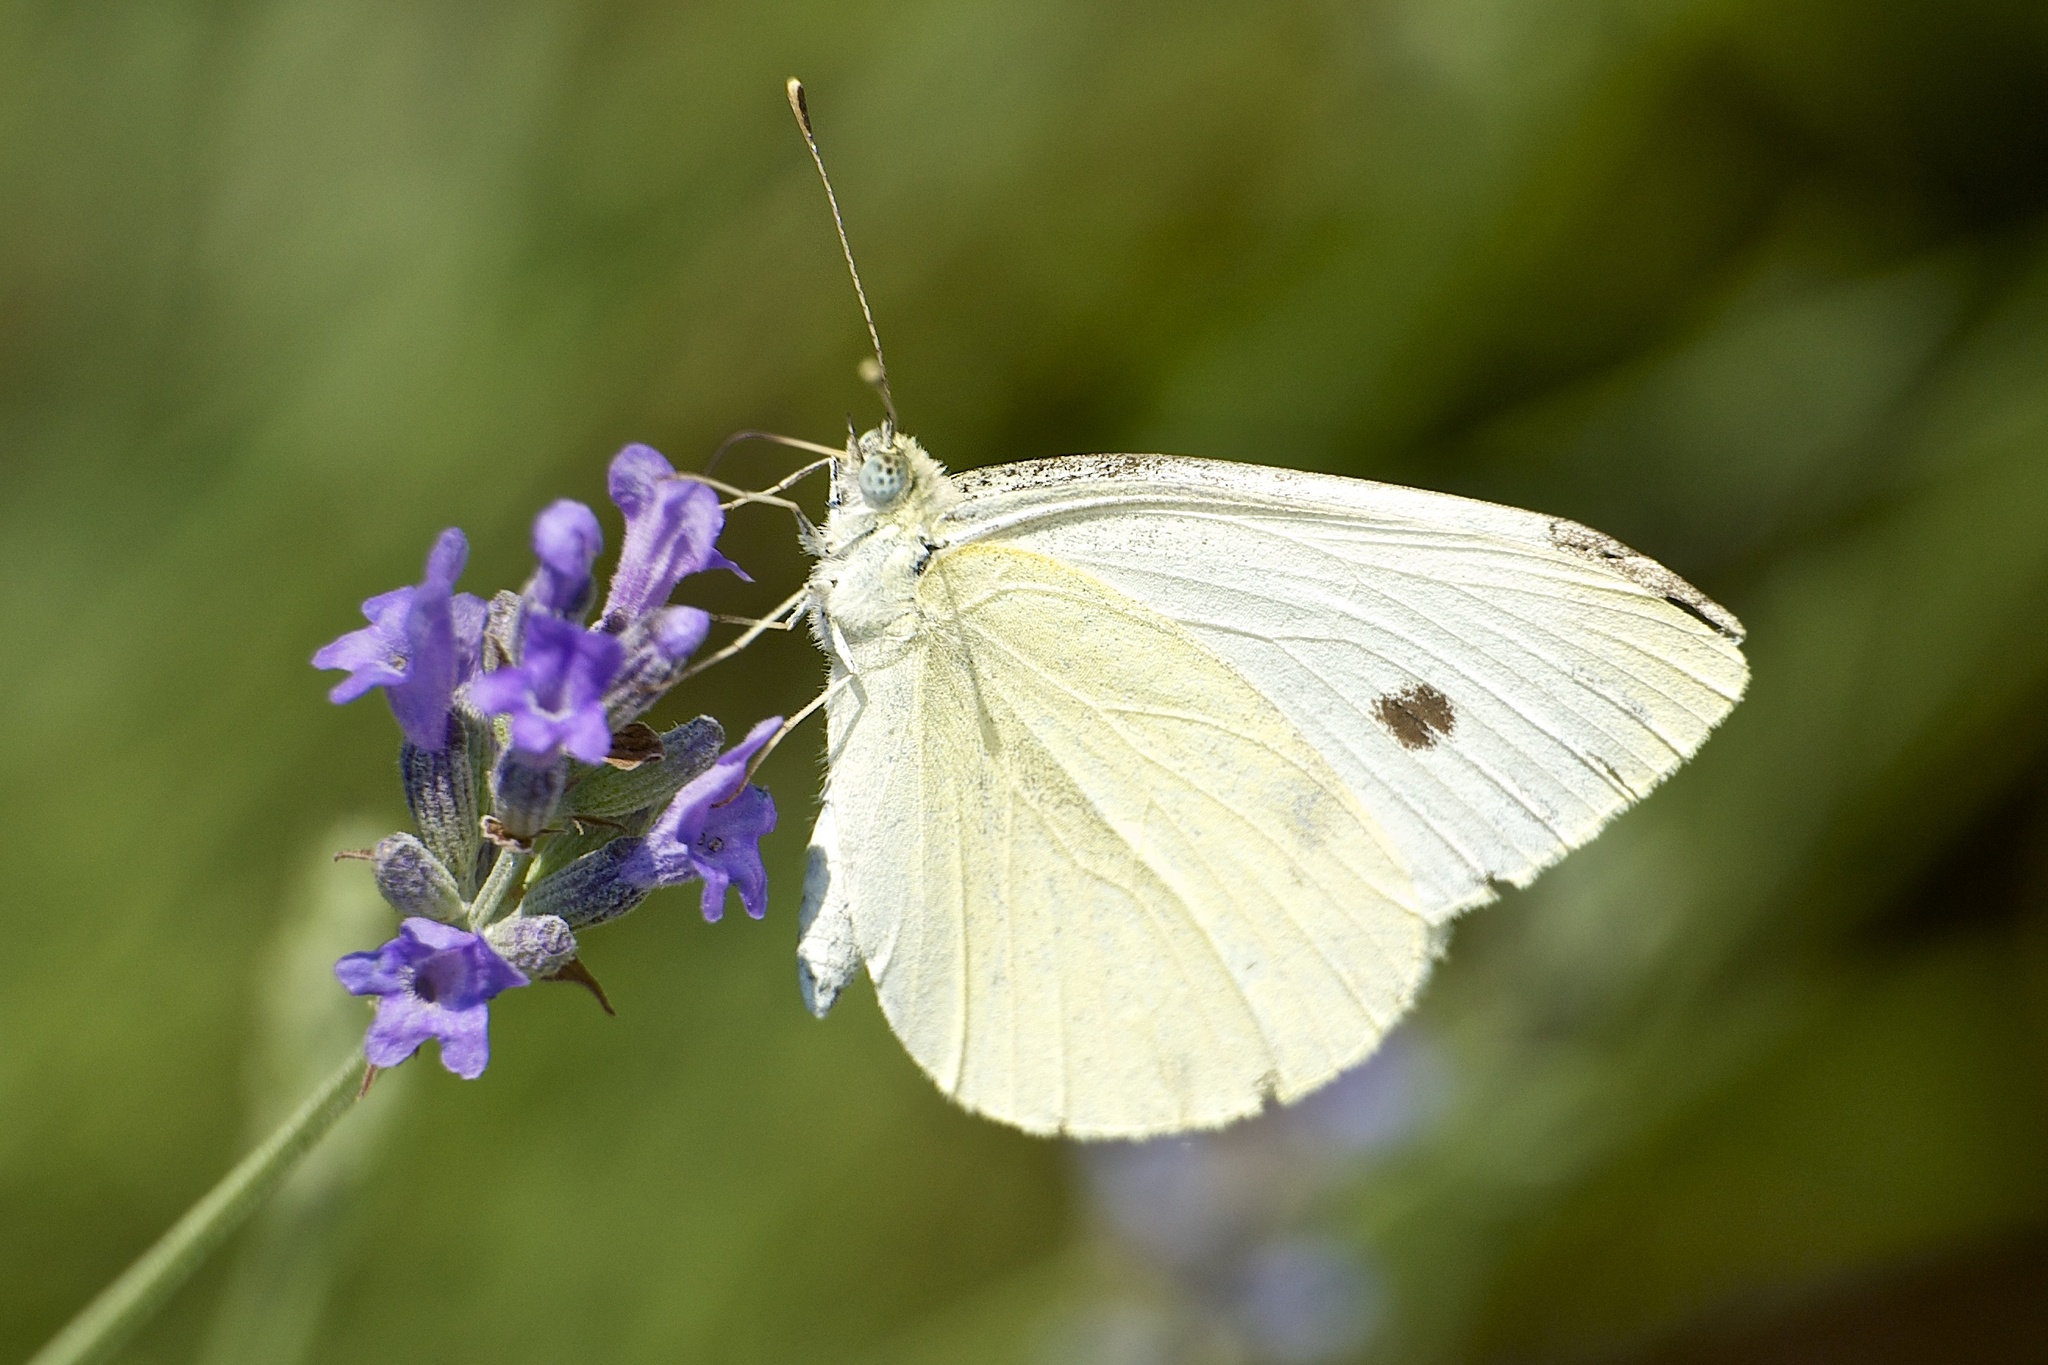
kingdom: Animalia
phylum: Arthropoda
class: Insecta
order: Lepidoptera
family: Pieridae
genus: Pieris
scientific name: Pieris rapae
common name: Small white
